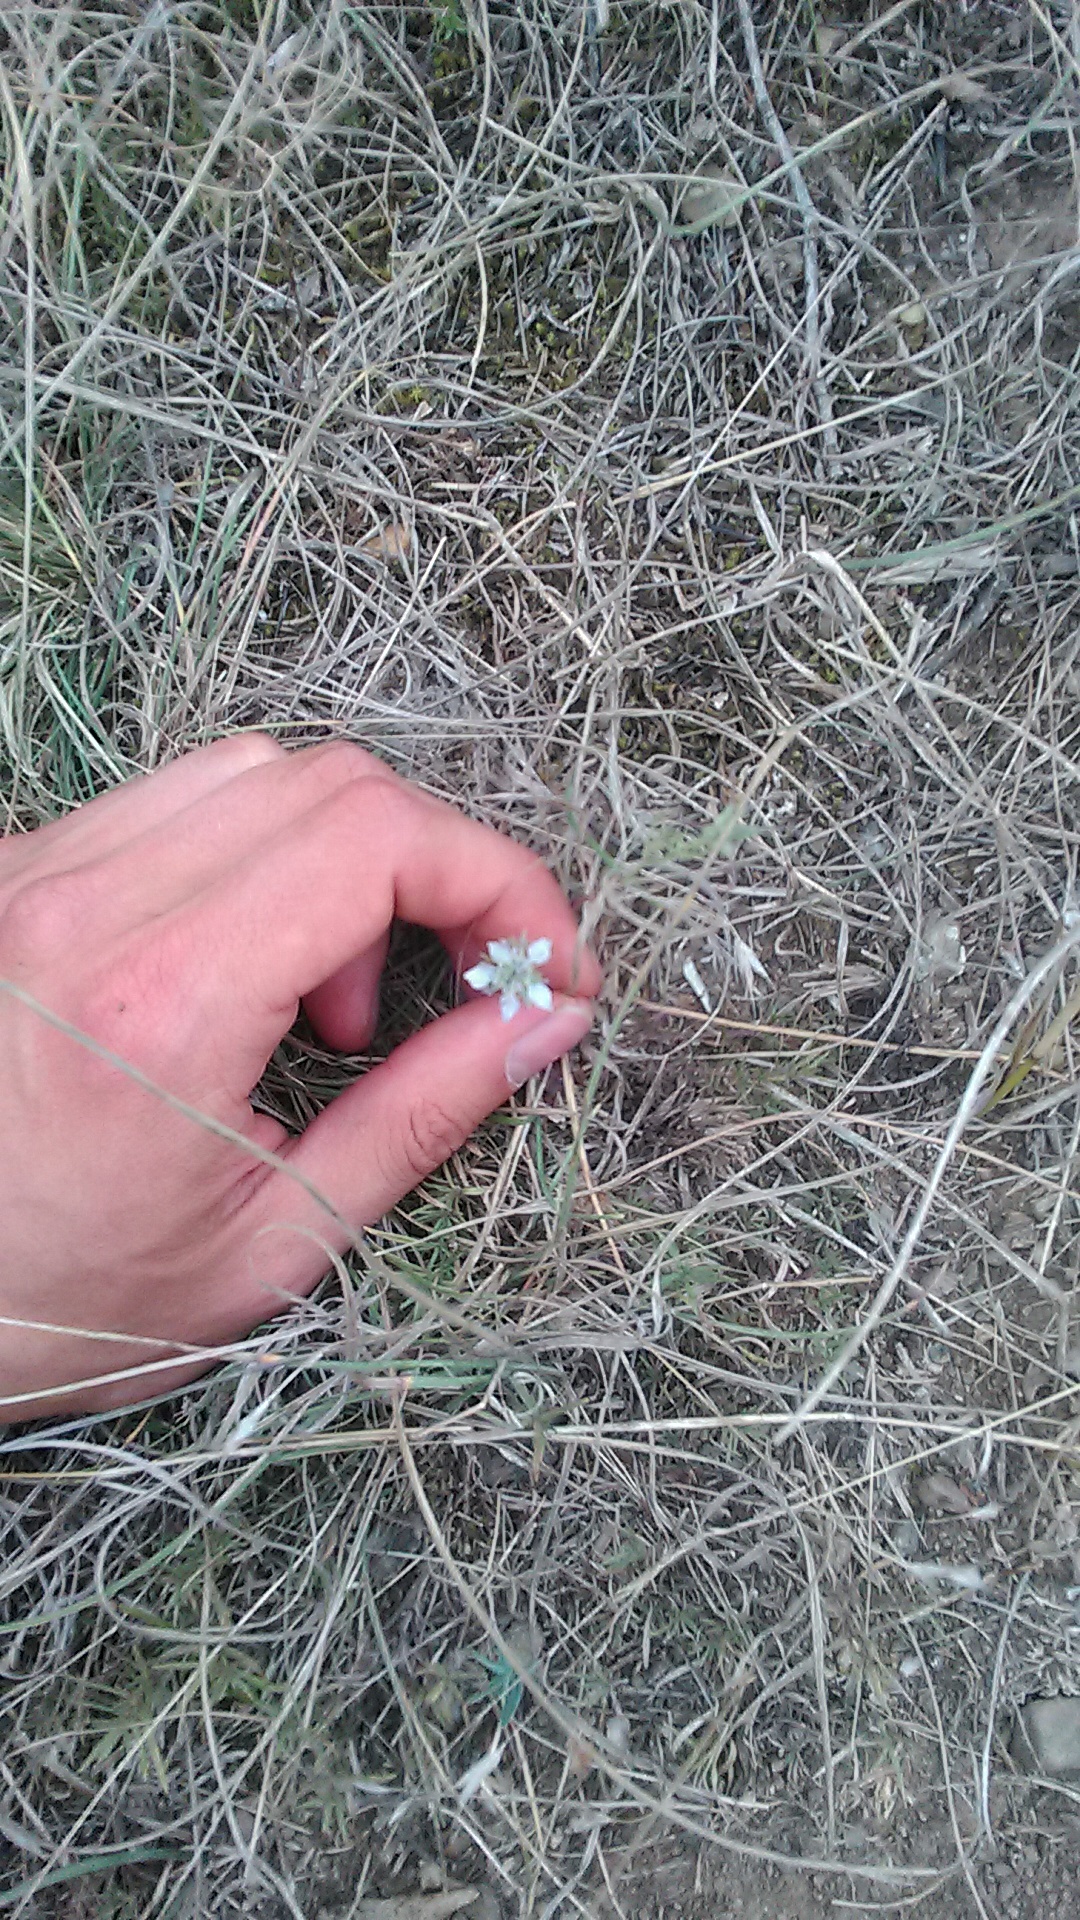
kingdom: Plantae
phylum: Tracheophyta
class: Magnoliopsida
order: Ranunculales
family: Ranunculaceae
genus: Nigella
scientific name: Nigella arvensis
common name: Wild fennel-flower
